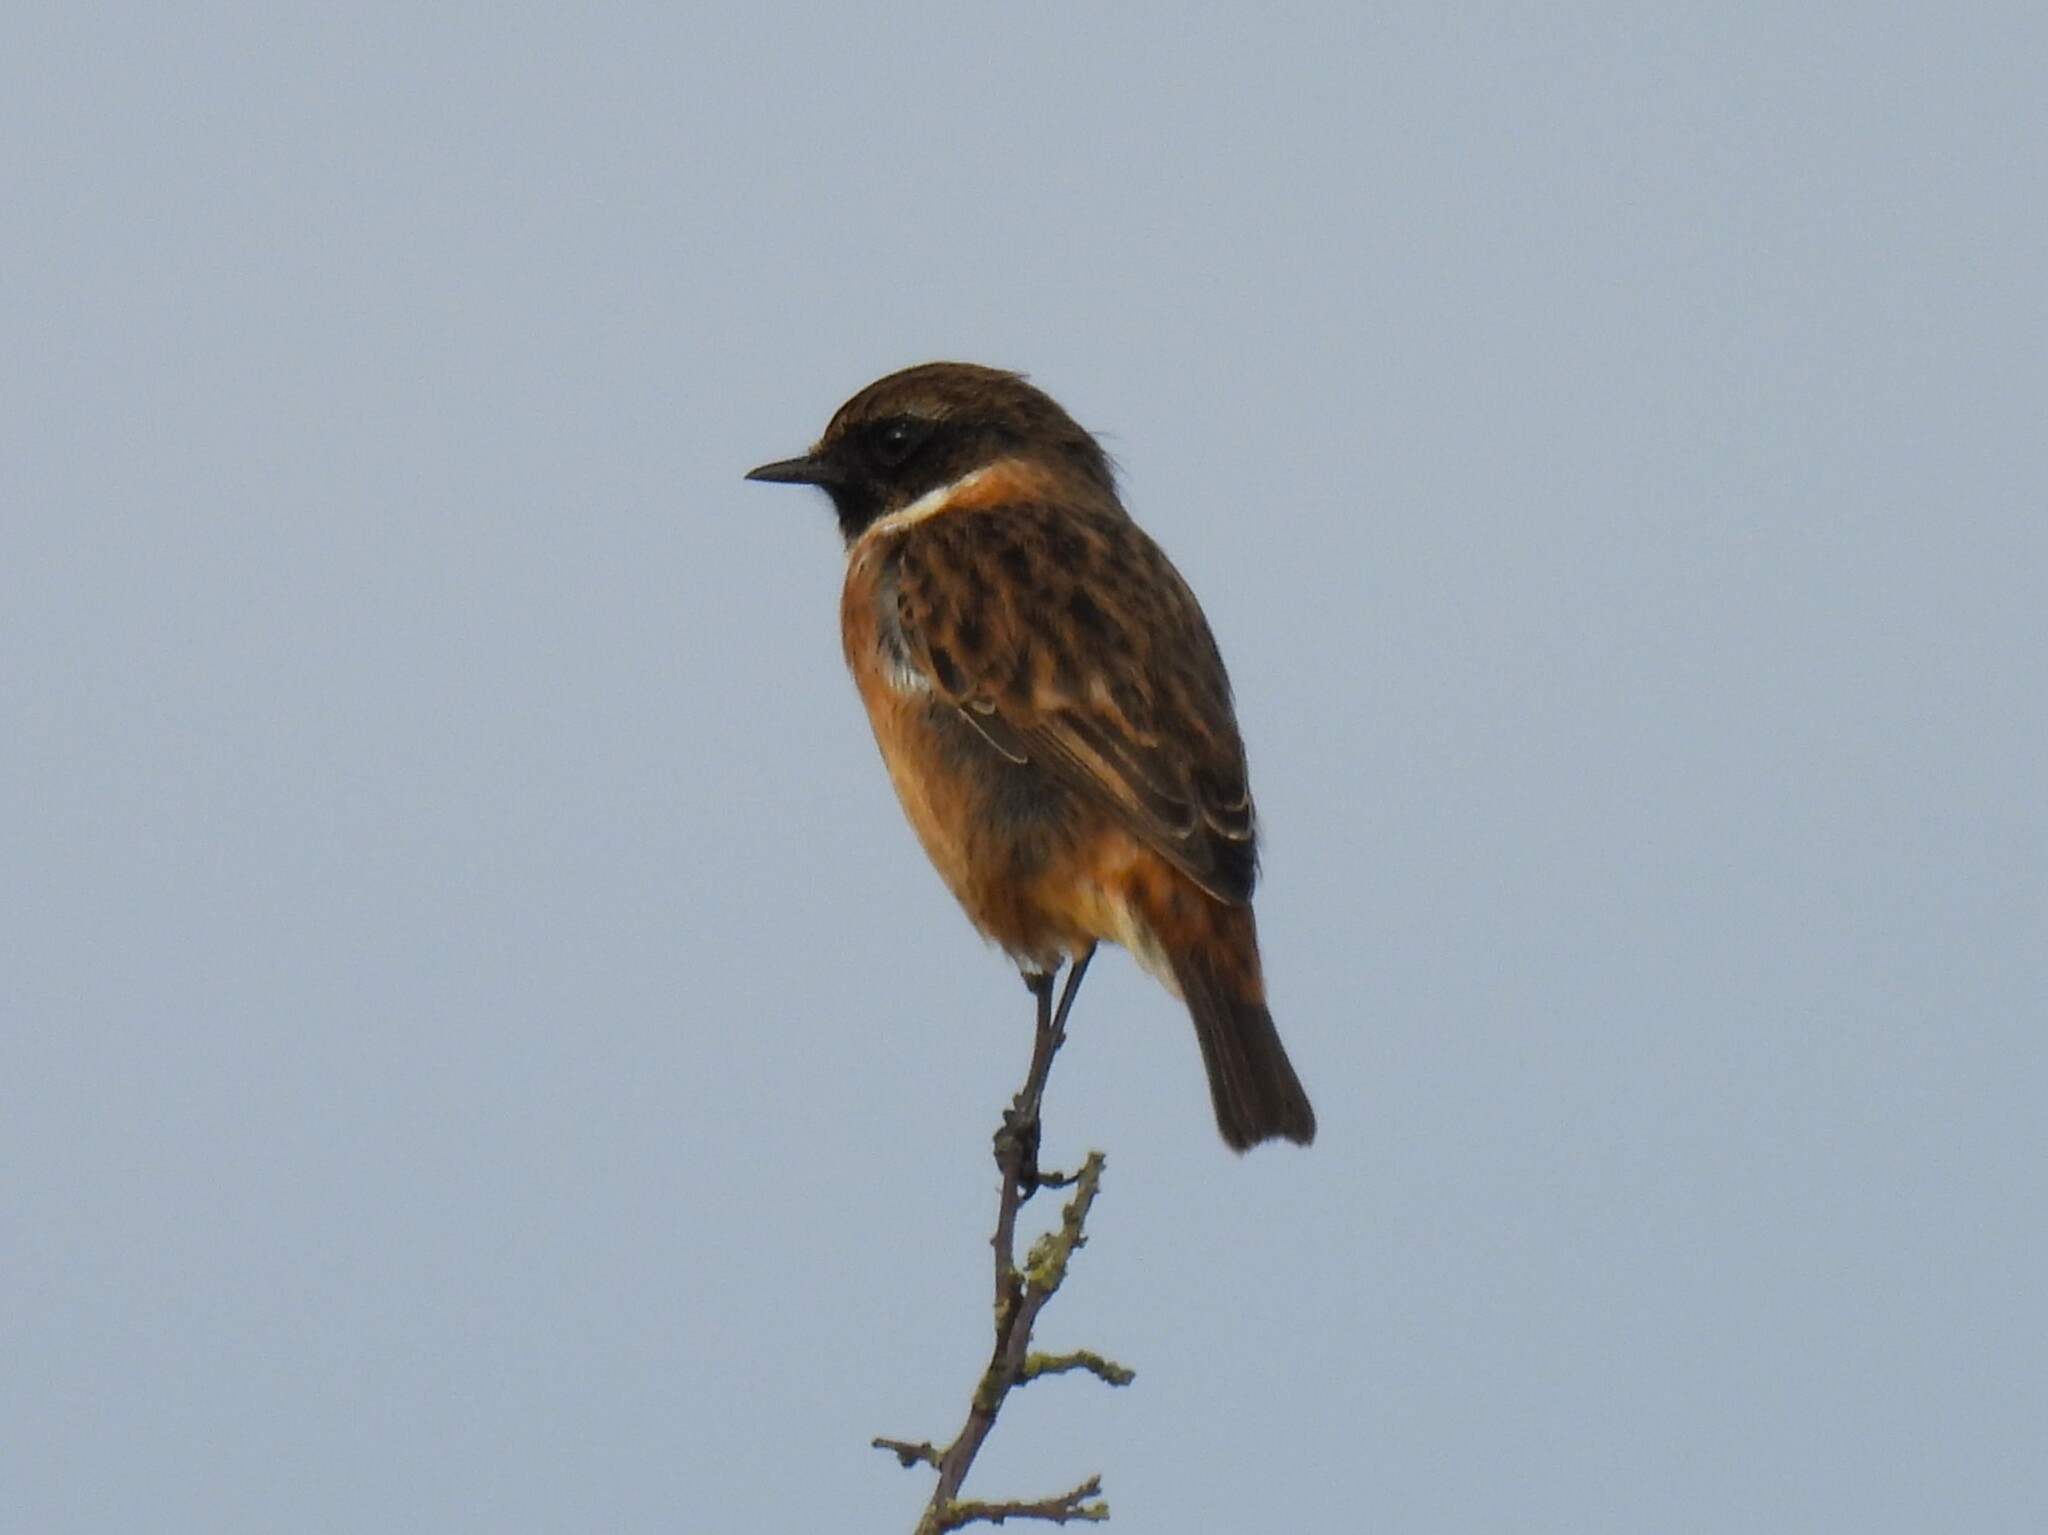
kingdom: Animalia
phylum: Chordata
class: Aves
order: Passeriformes
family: Muscicapidae
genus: Saxicola
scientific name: Saxicola rubicola
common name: European stonechat
